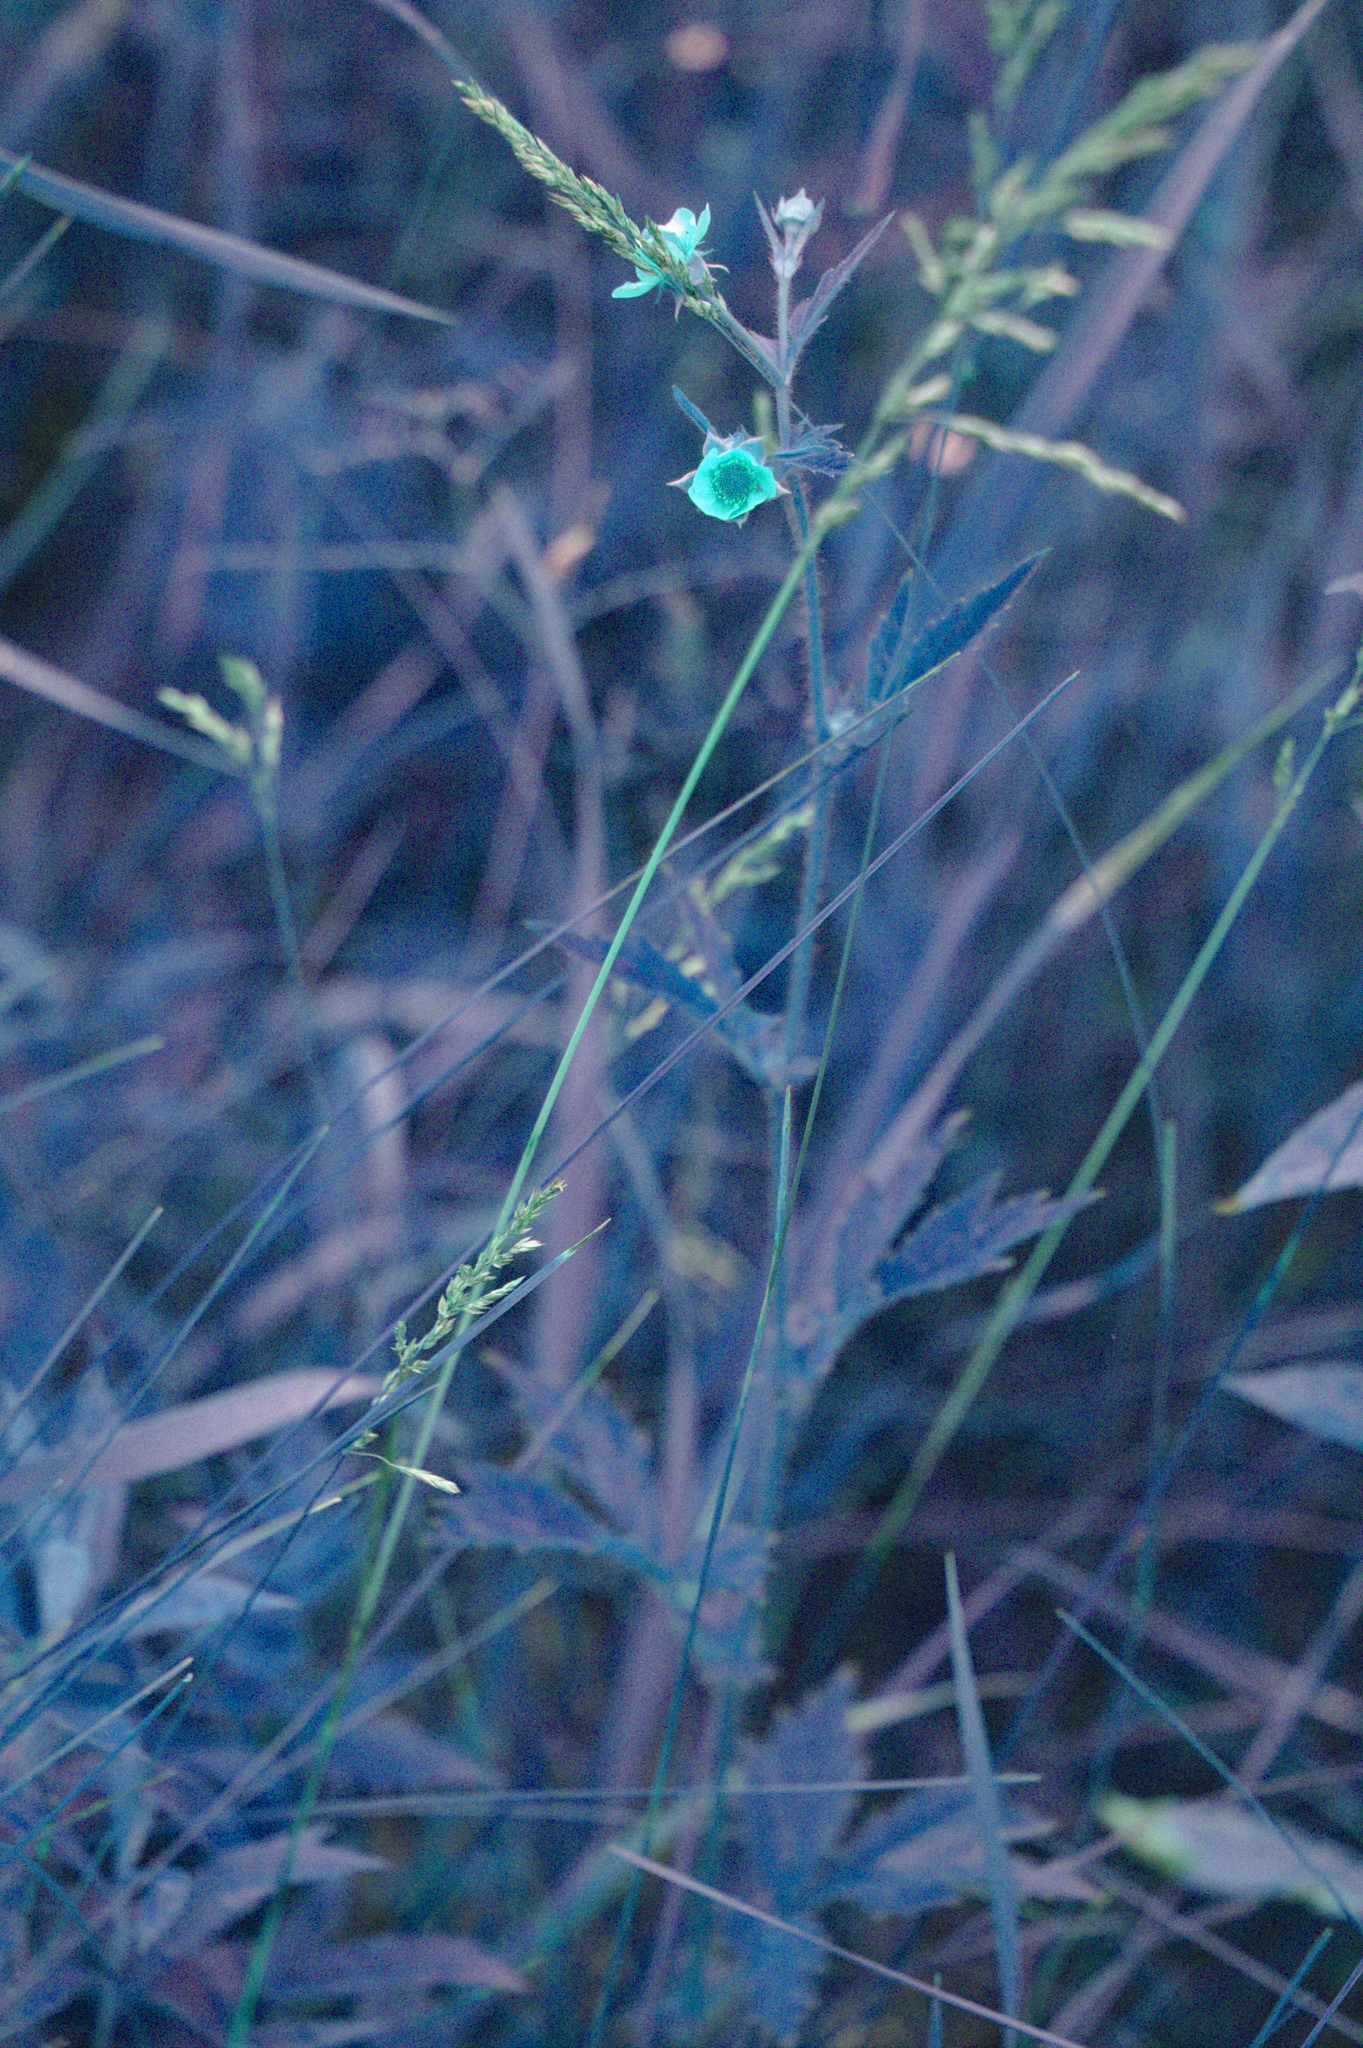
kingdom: Plantae
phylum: Tracheophyta
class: Magnoliopsida
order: Rosales
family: Rosaceae
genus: Geum
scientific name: Geum aleppicum
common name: Yellow avens
